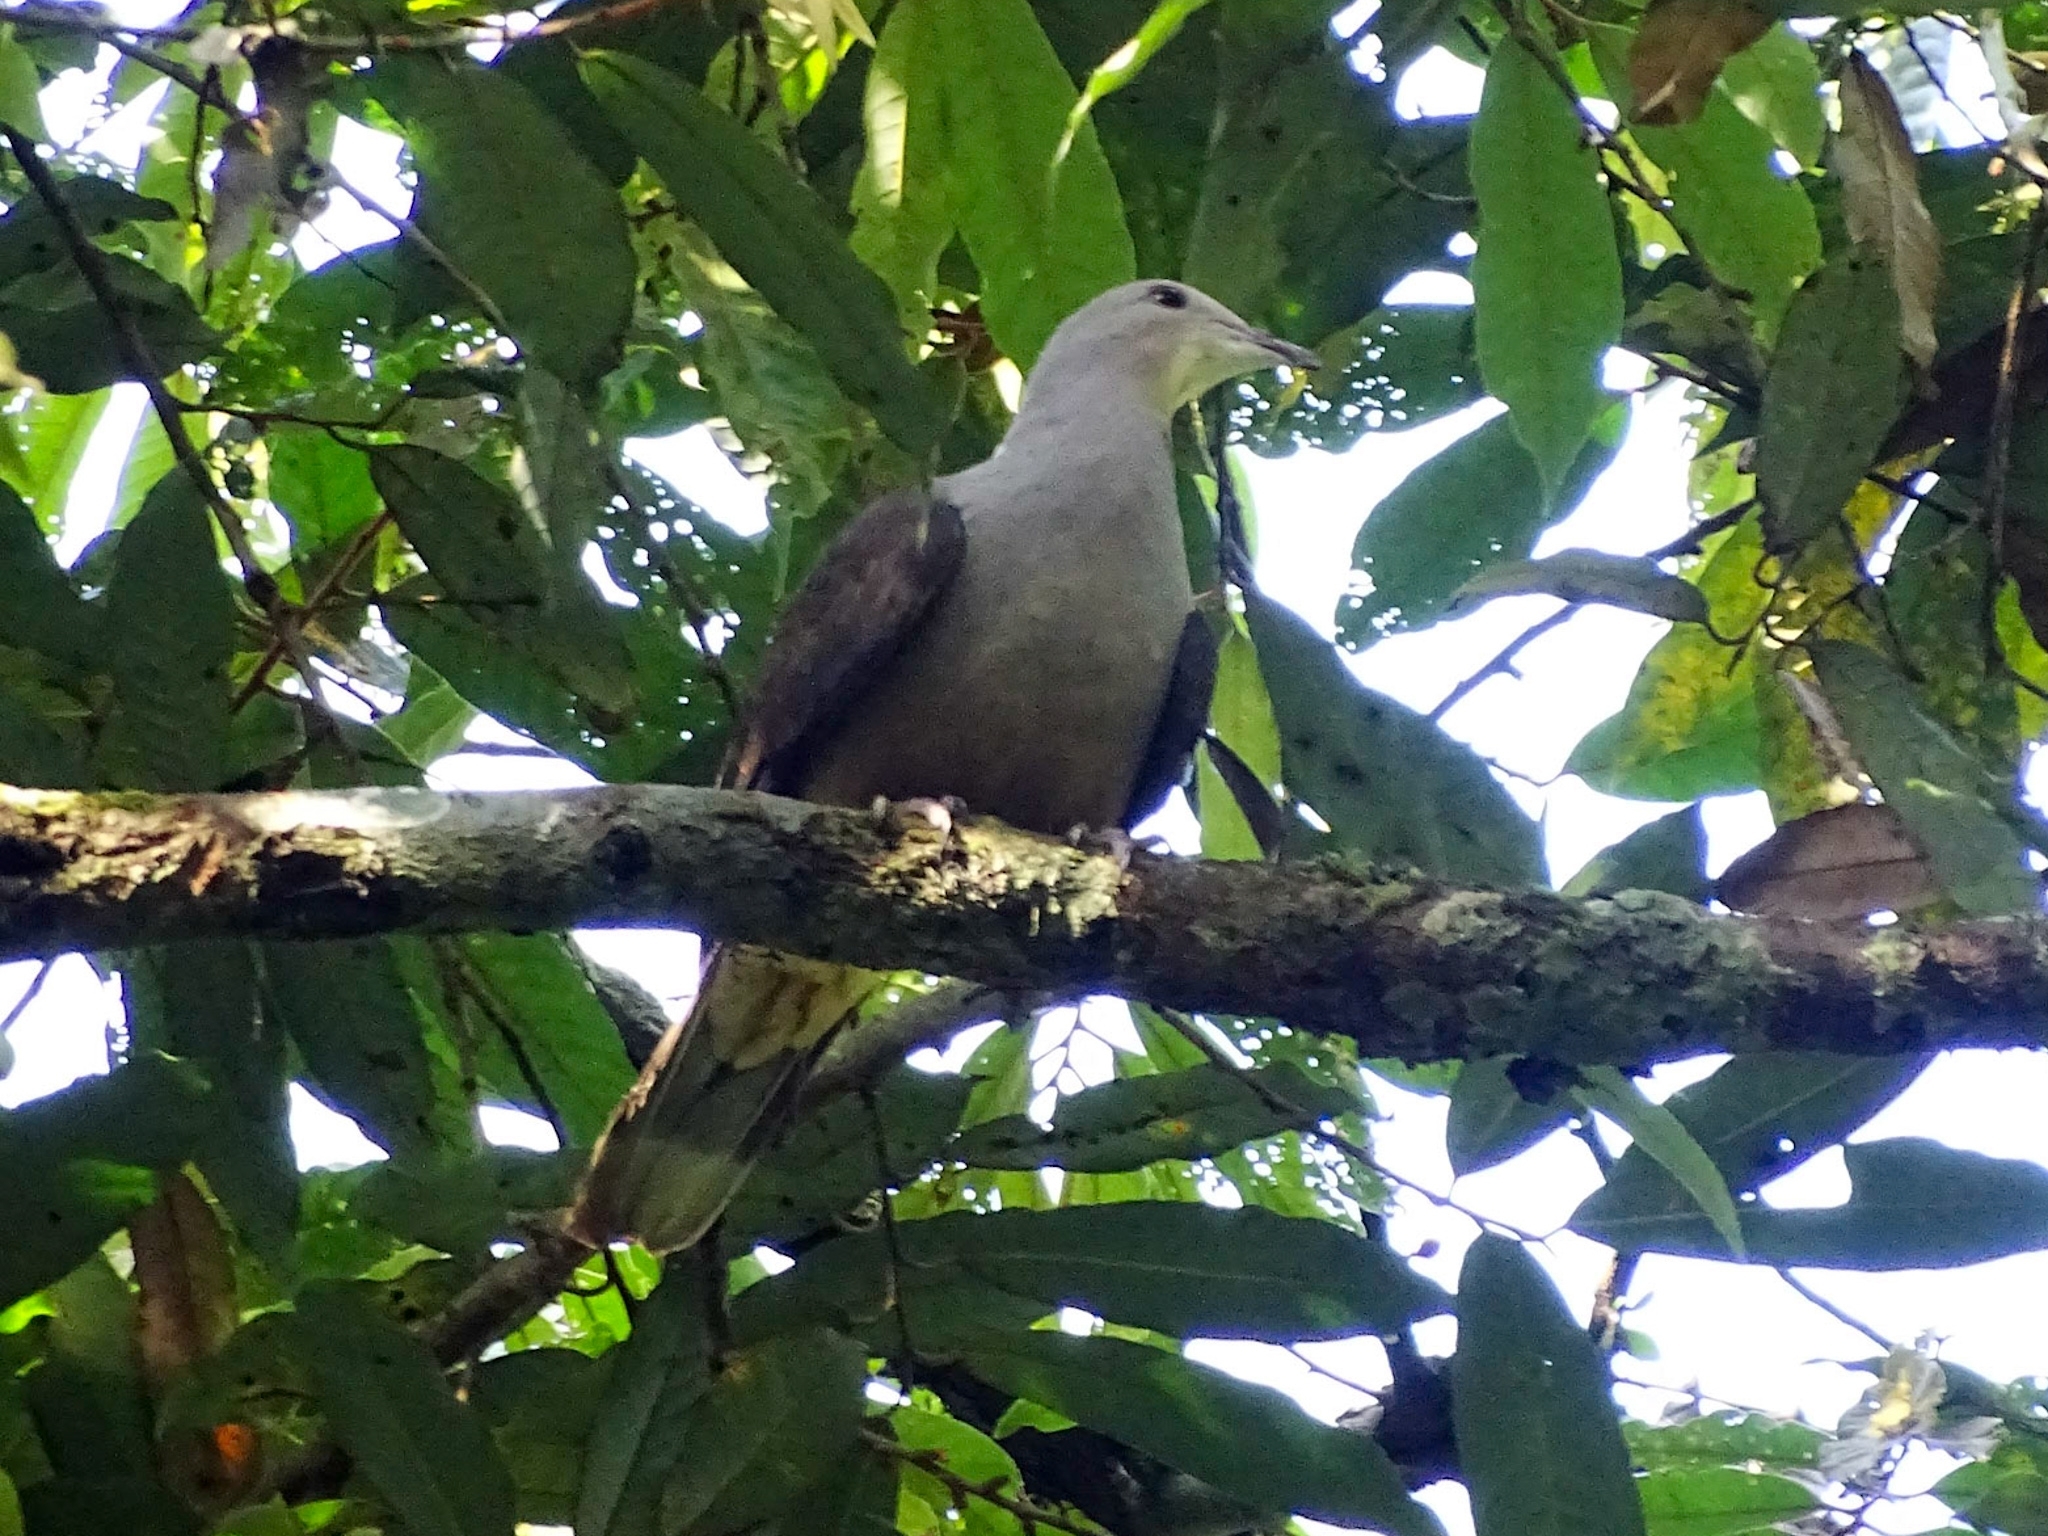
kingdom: Animalia
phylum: Chordata
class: Aves
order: Columbiformes
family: Columbidae
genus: Ducula
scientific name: Ducula badia
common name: Mountain imperial pigeon
